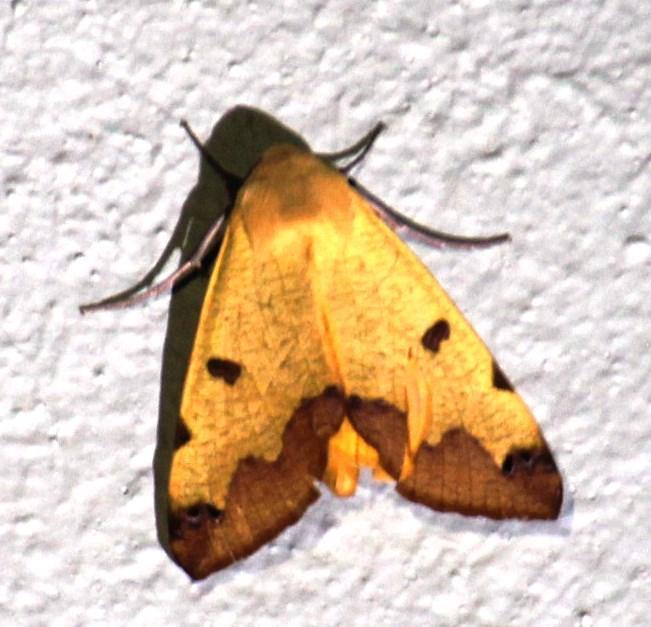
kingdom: Animalia
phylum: Arthropoda
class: Insecta
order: Lepidoptera
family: Erebidae
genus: Ophiusa
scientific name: Ophiusa tirhaca
